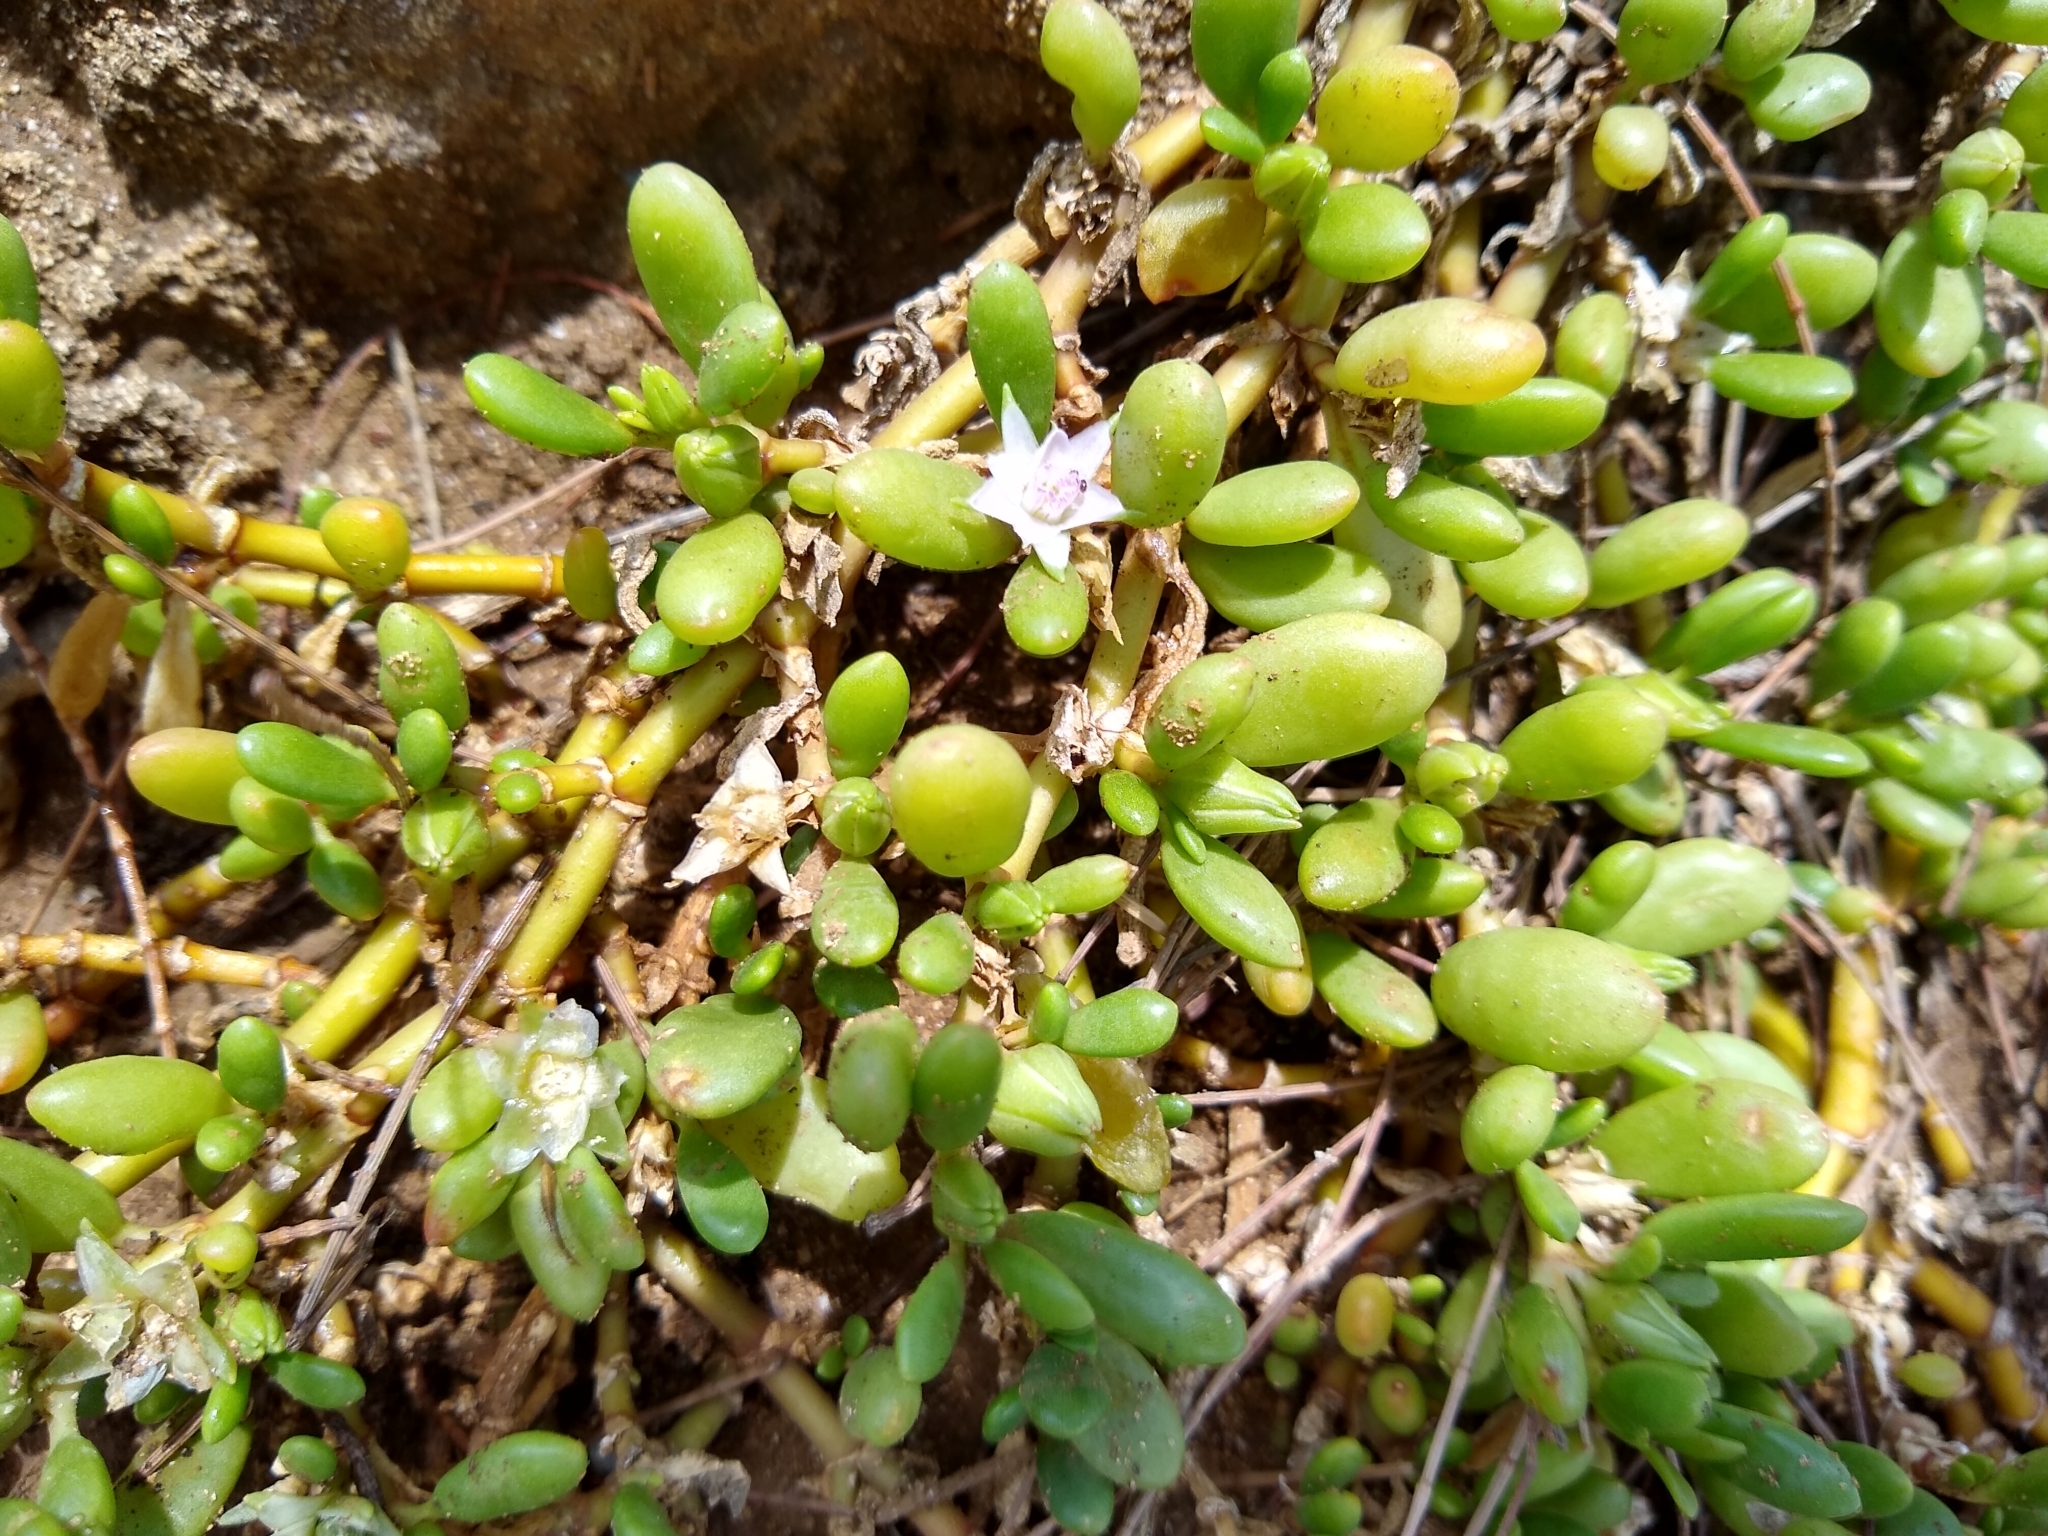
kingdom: Plantae
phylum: Tracheophyta
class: Magnoliopsida
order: Caryophyllales
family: Aizoaceae
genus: Sesuvium
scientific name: Sesuvium portulacastrum
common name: Sea-purslane
